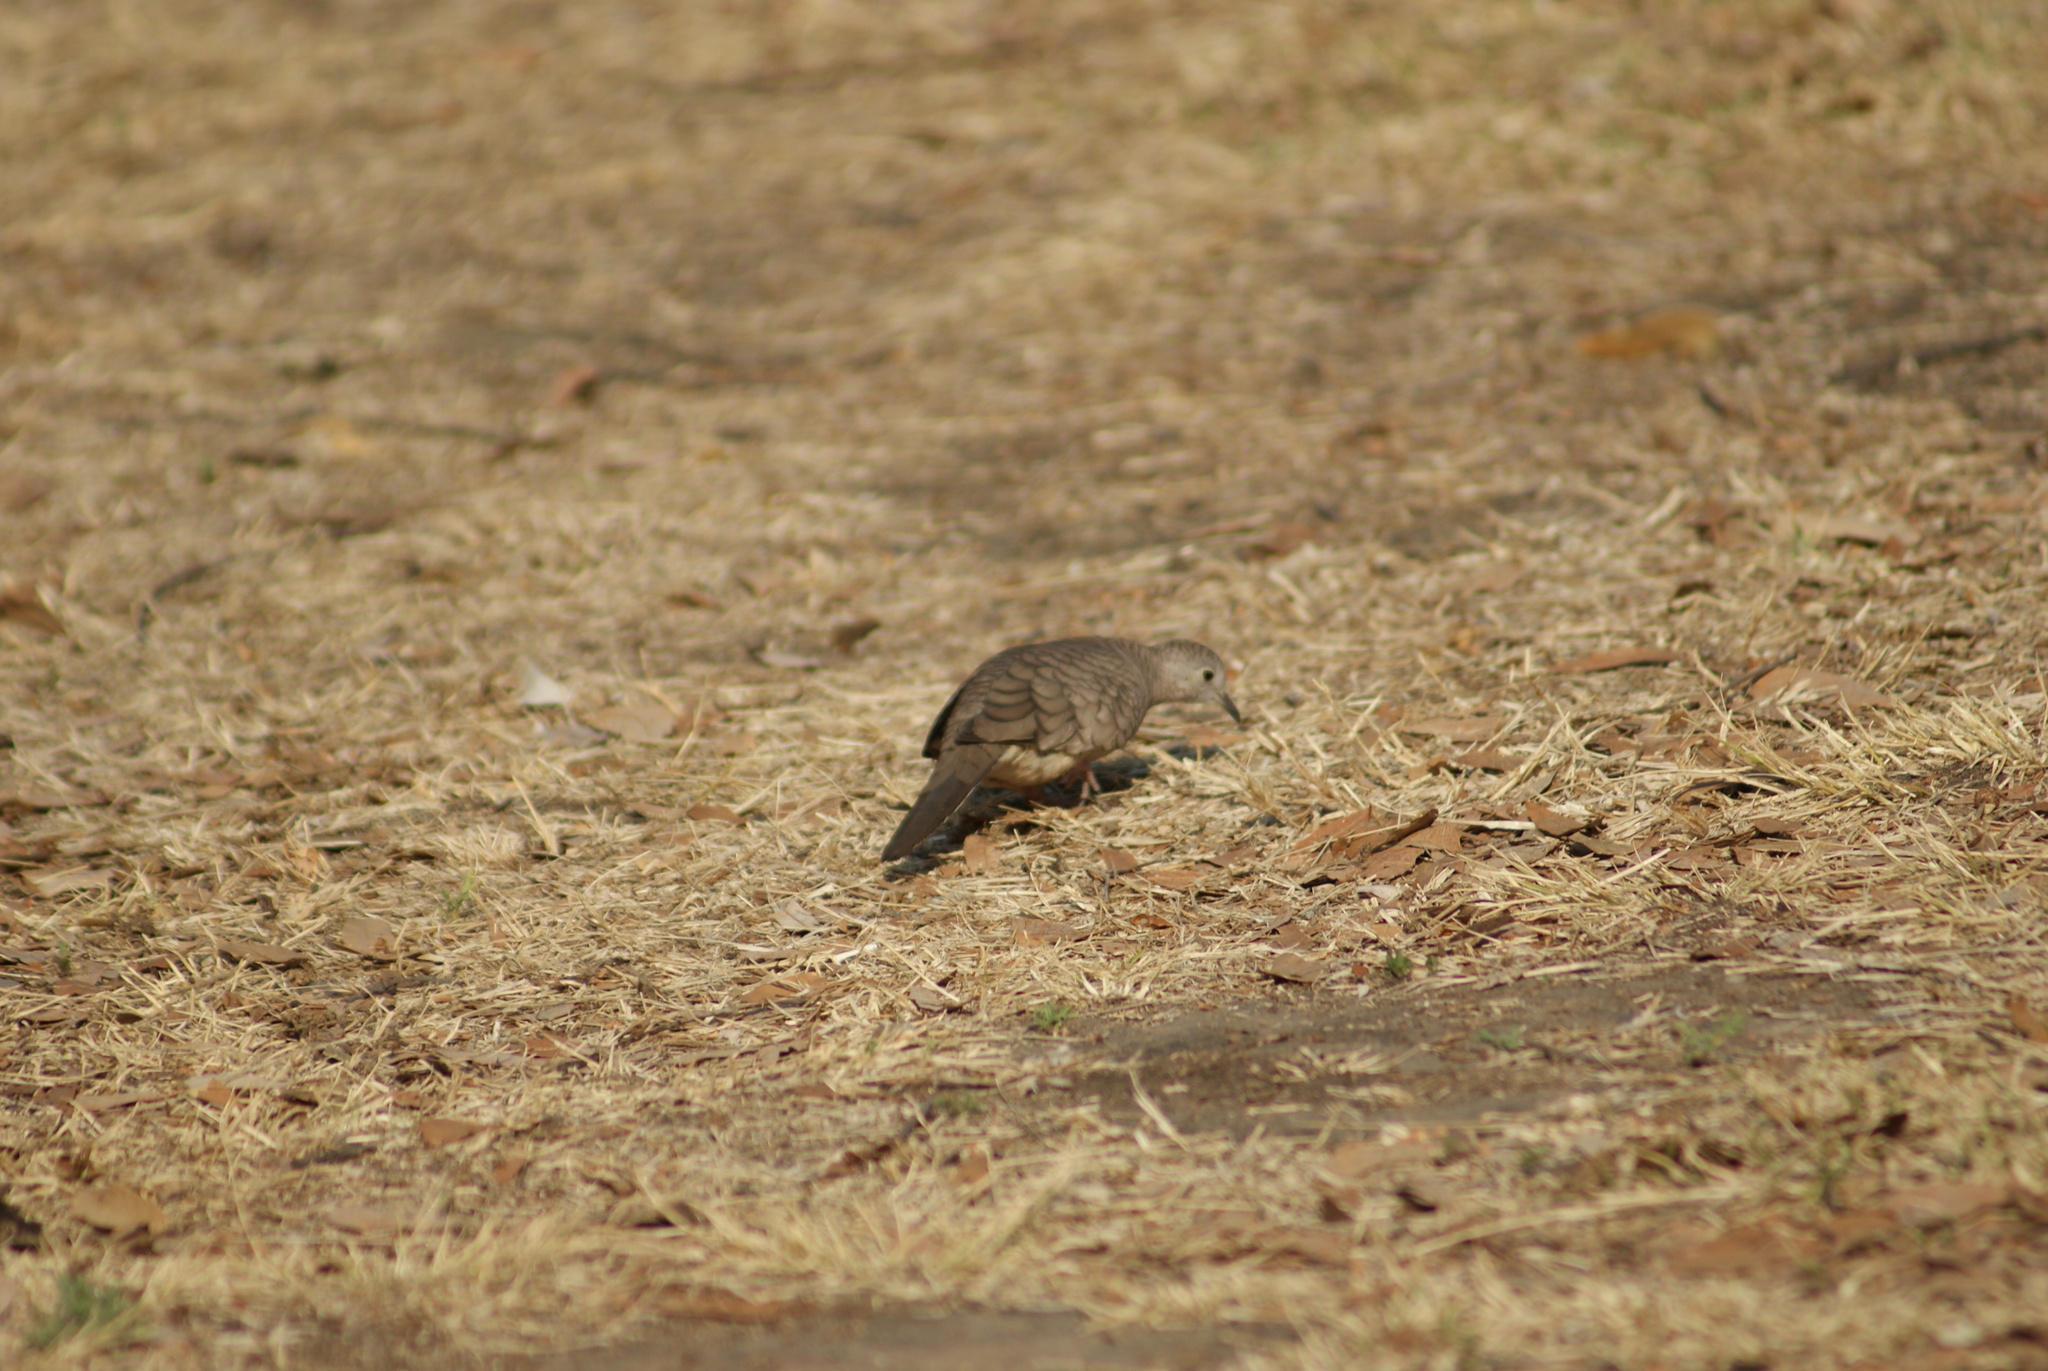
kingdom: Animalia
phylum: Chordata
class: Aves
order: Columbiformes
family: Columbidae
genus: Columbina
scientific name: Columbina inca
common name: Inca dove
